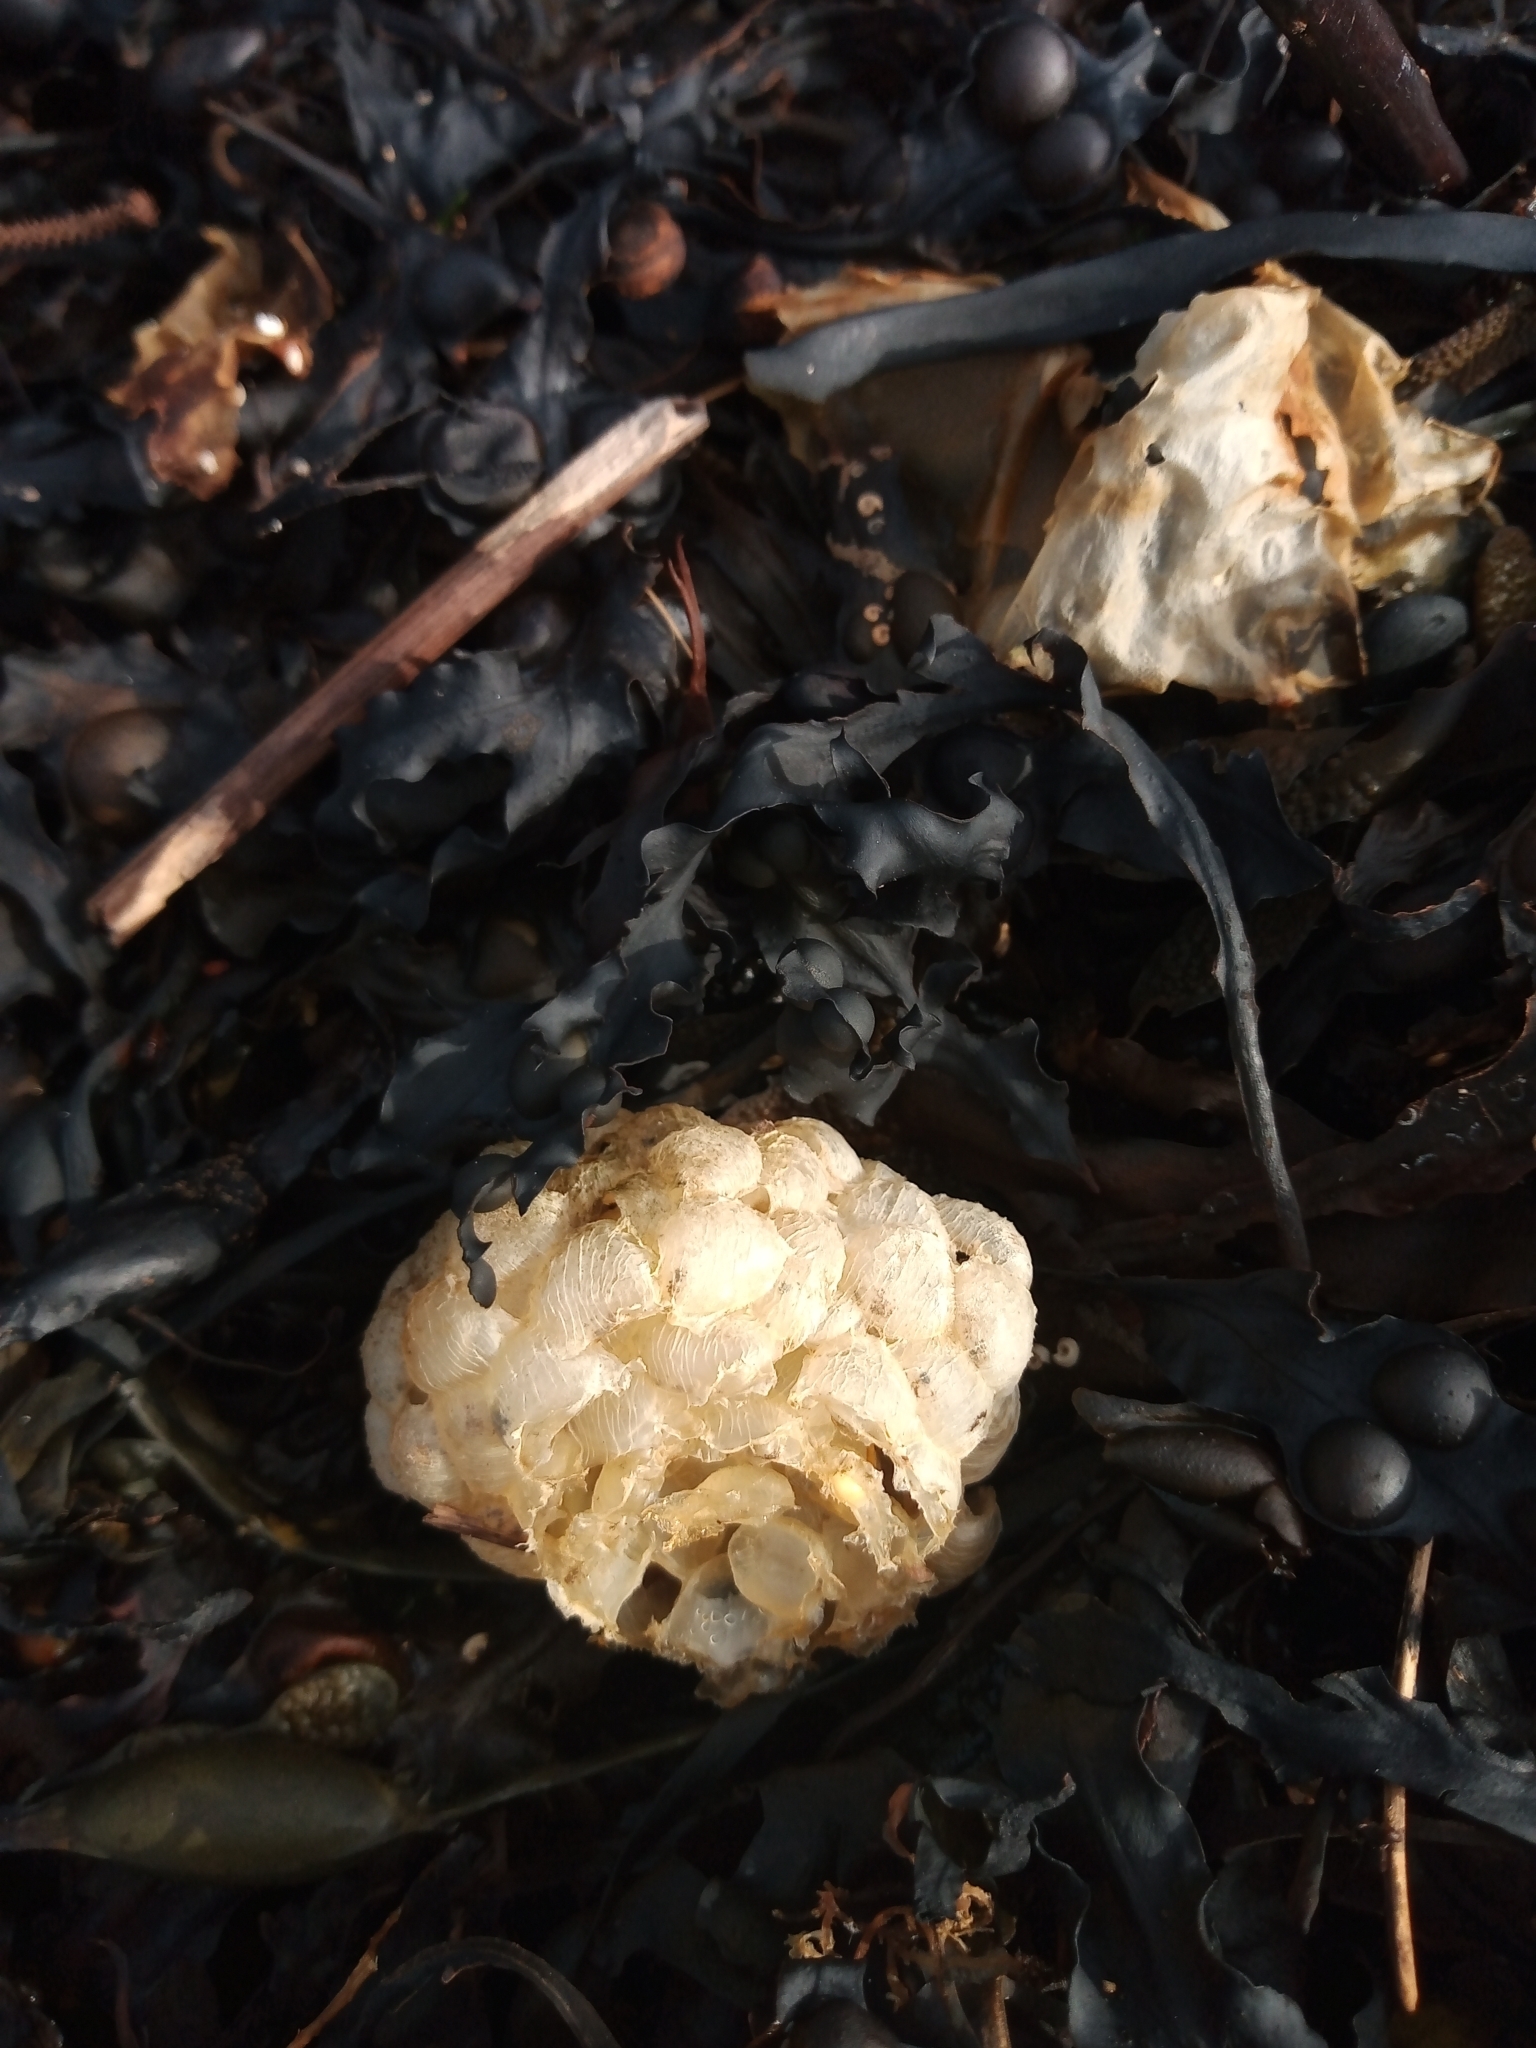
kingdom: Animalia
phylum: Mollusca
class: Gastropoda
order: Neogastropoda
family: Buccinidae
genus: Buccinum
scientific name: Buccinum undatum
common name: Common whelk
